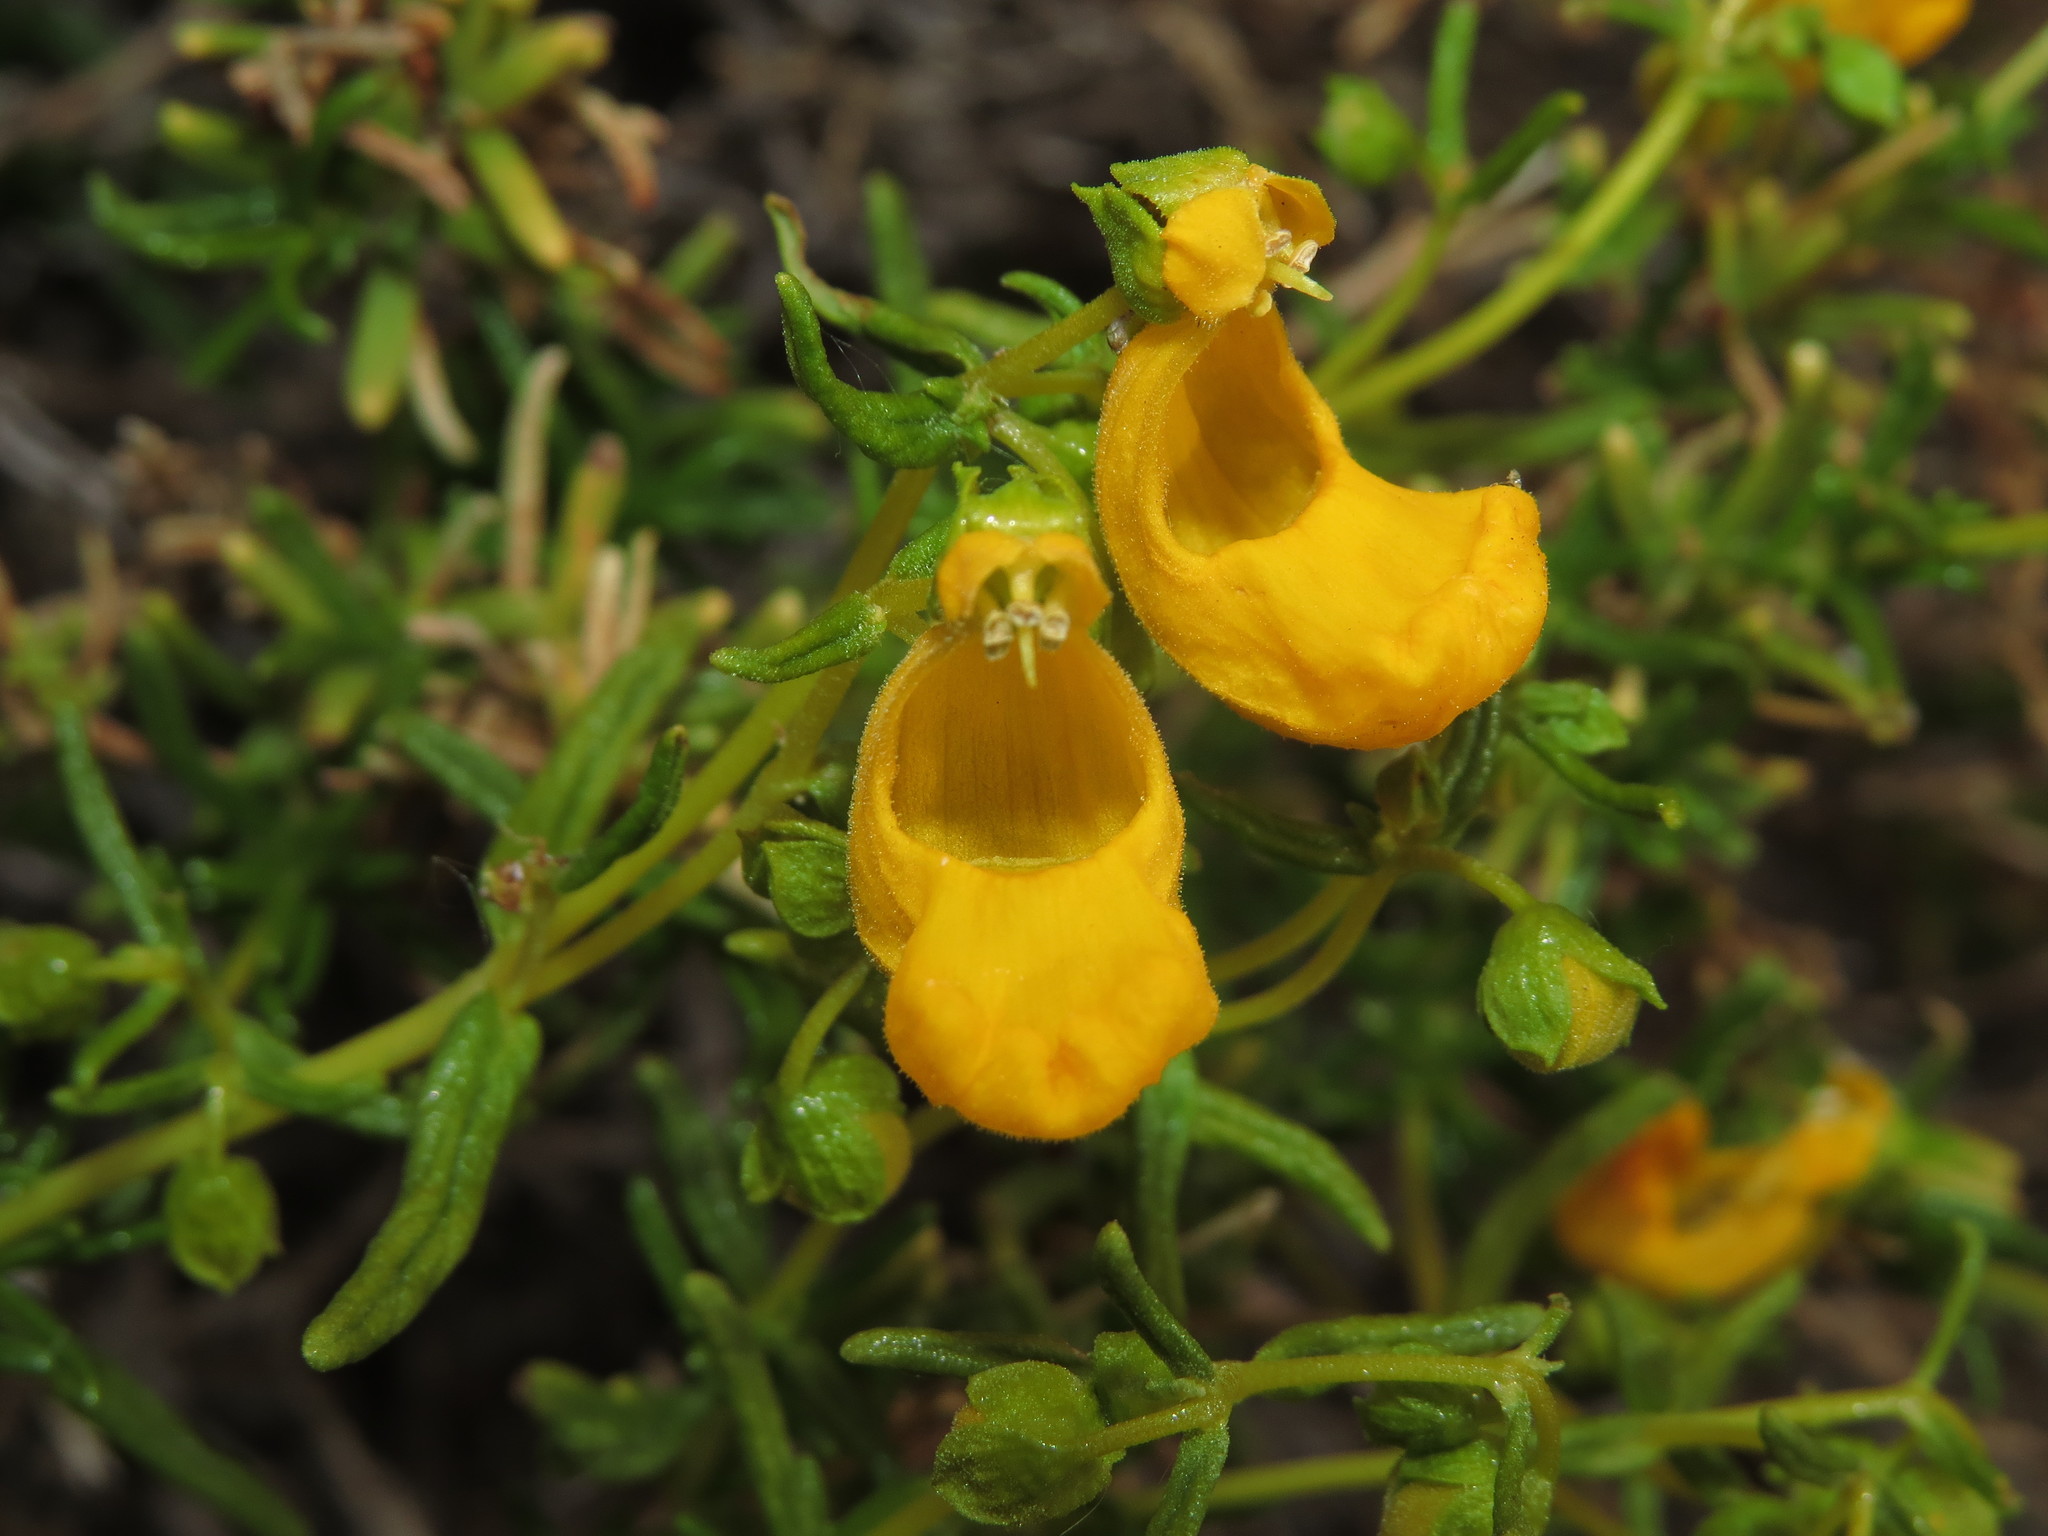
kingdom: Plantae
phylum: Tracheophyta
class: Magnoliopsida
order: Lamiales
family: Calceolariaceae
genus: Calceolaria
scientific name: Calceolaria hypericina
